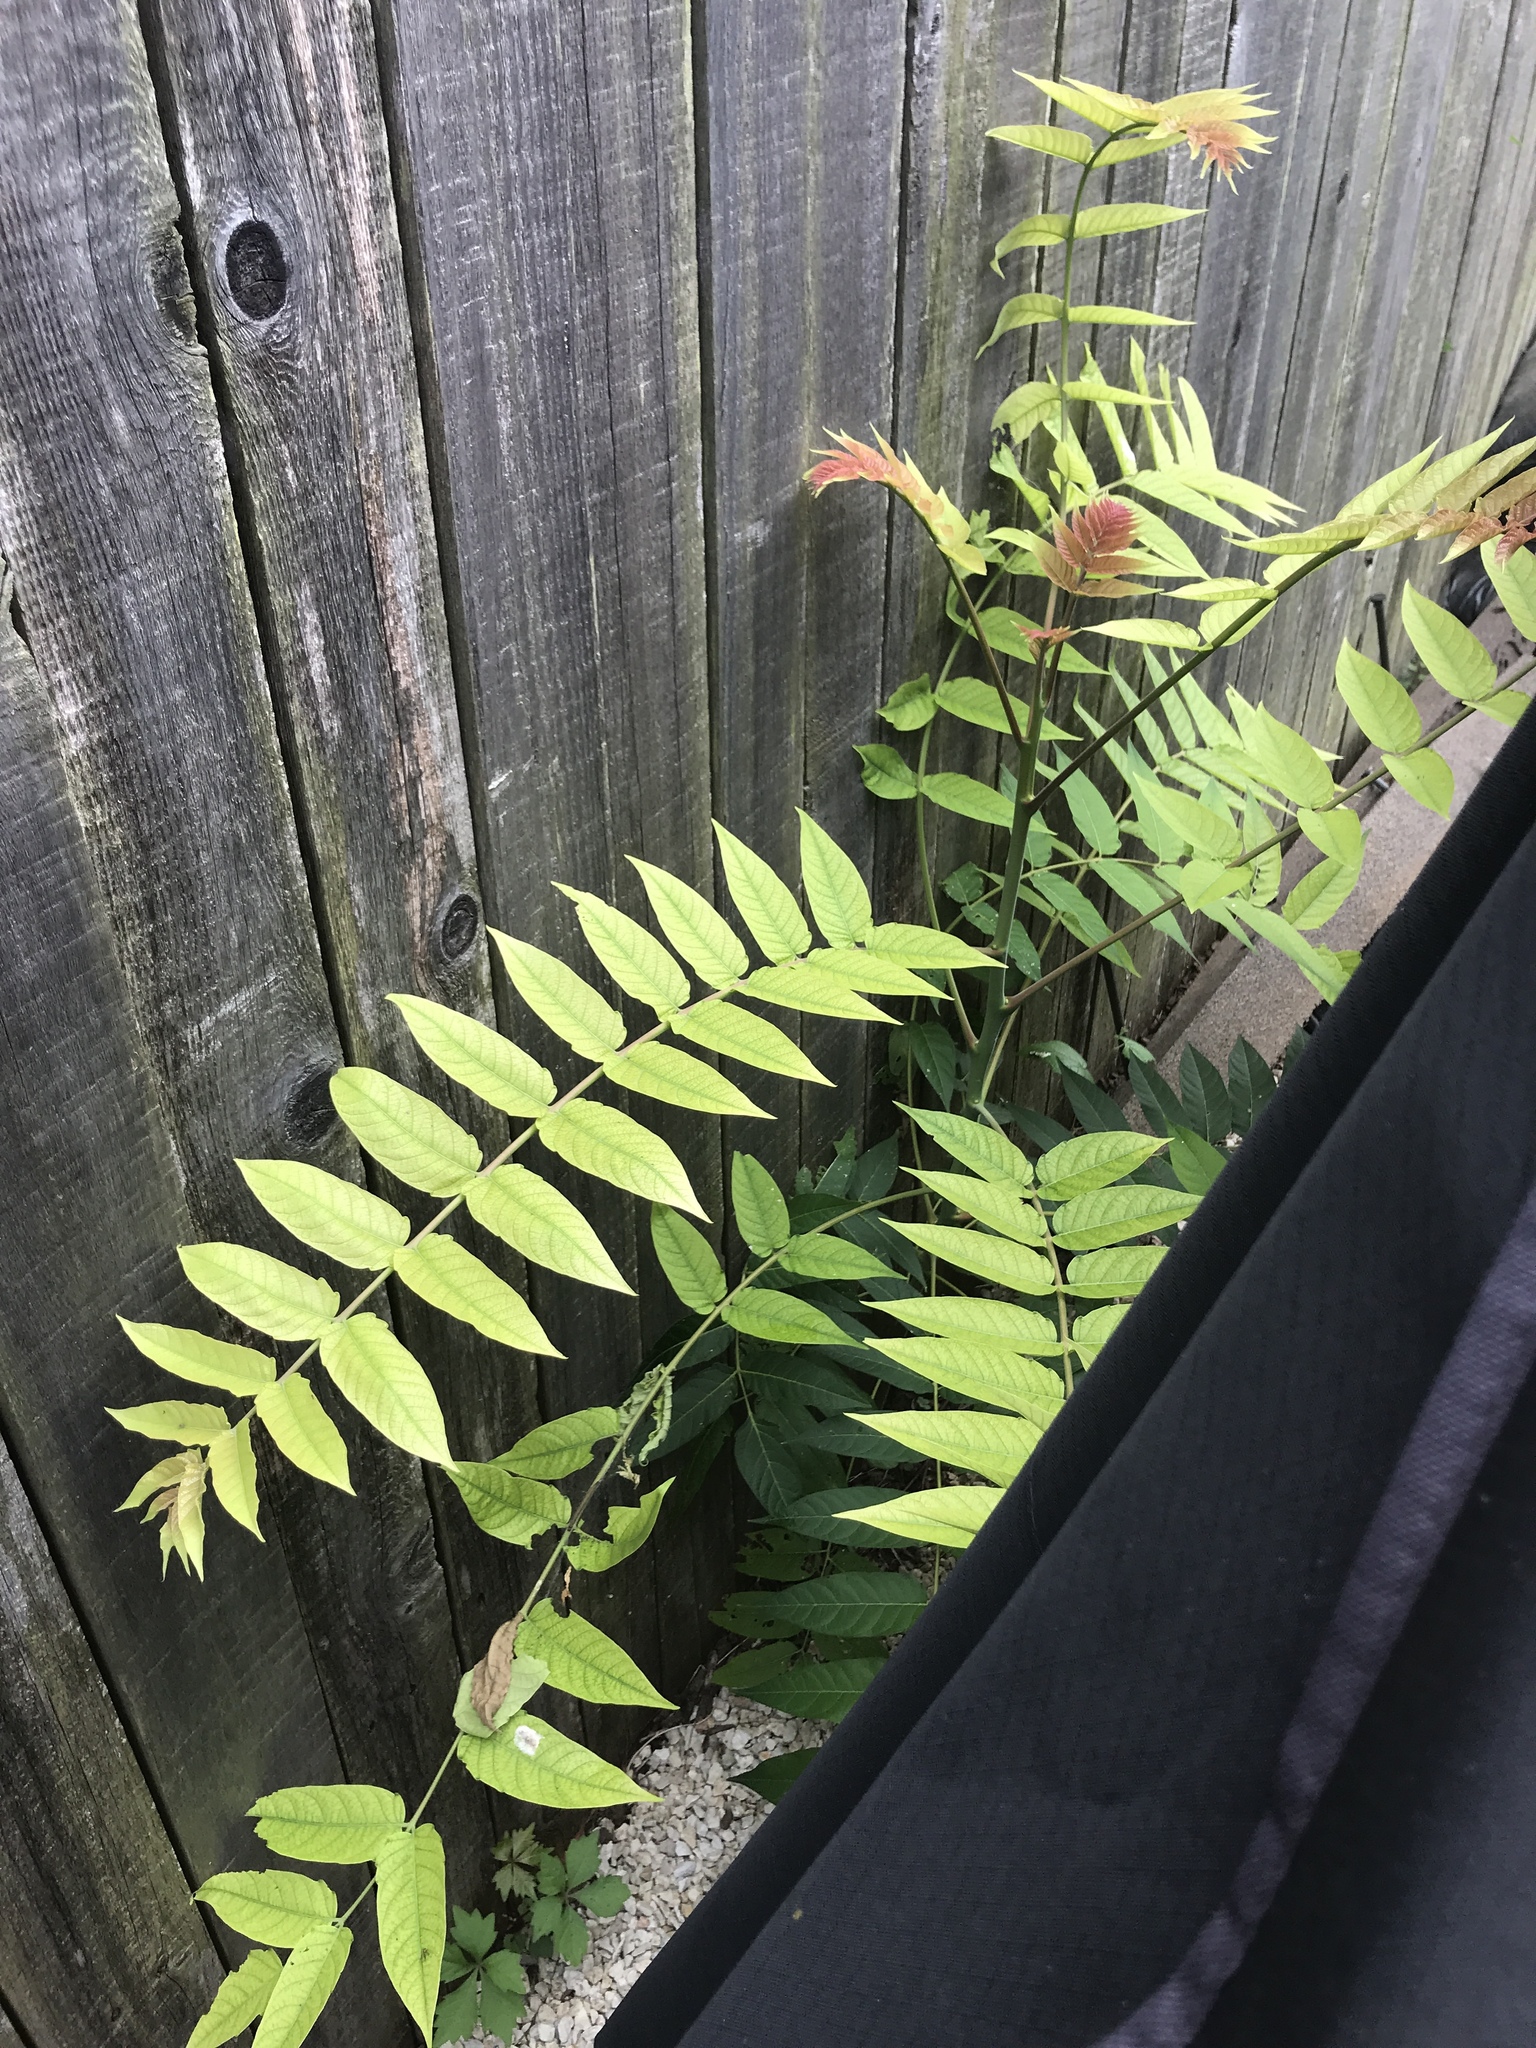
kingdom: Plantae
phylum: Tracheophyta
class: Magnoliopsida
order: Sapindales
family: Simaroubaceae
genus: Ailanthus
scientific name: Ailanthus altissima
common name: Tree-of-heaven
